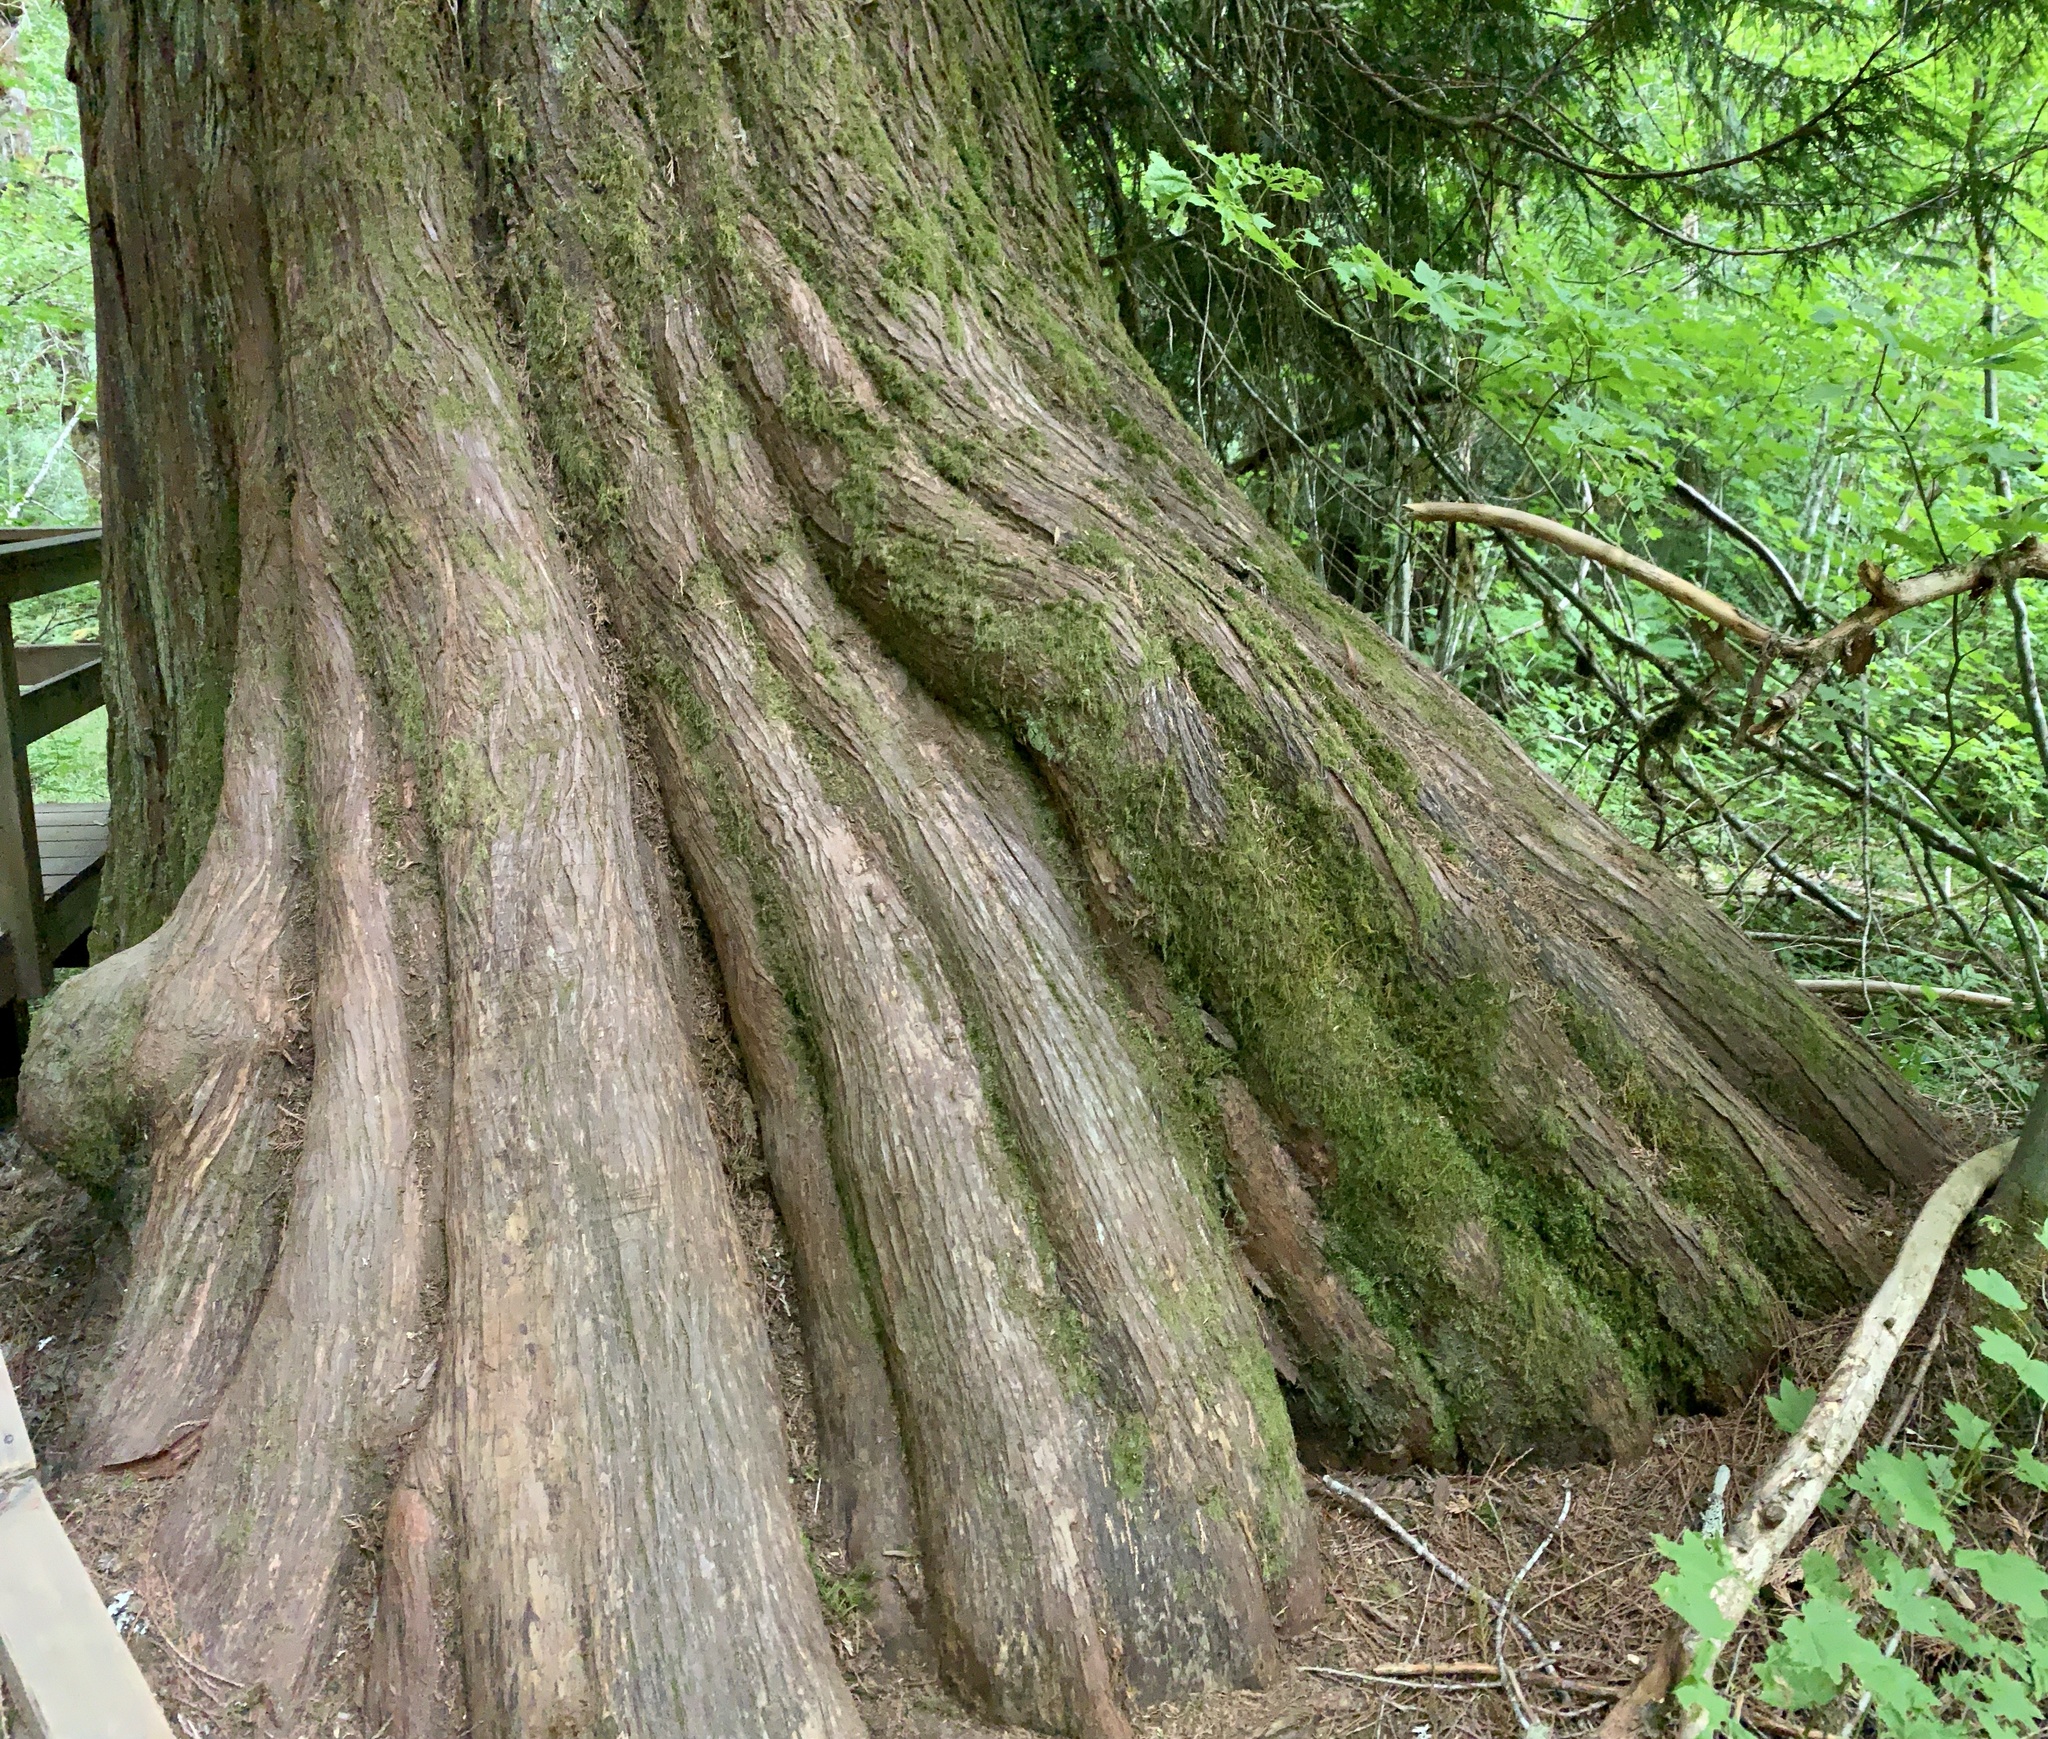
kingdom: Plantae
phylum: Tracheophyta
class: Pinopsida
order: Pinales
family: Cupressaceae
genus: Thuja
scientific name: Thuja plicata
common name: Western red-cedar
